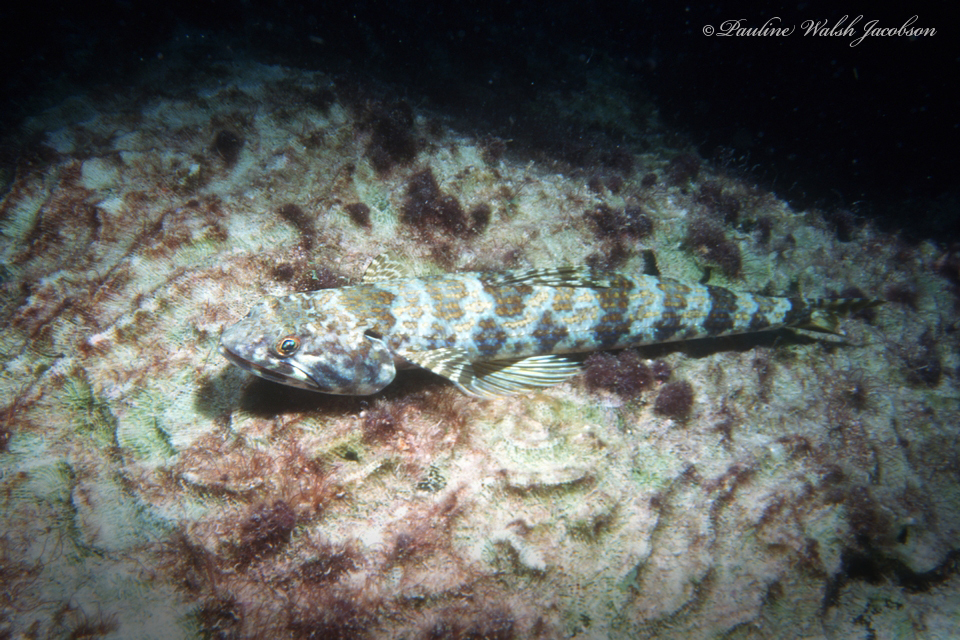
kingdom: Animalia
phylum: Chordata
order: Aulopiformes
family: Synodontidae
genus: Synodus
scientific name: Synodus intermedius
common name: Sand diver
